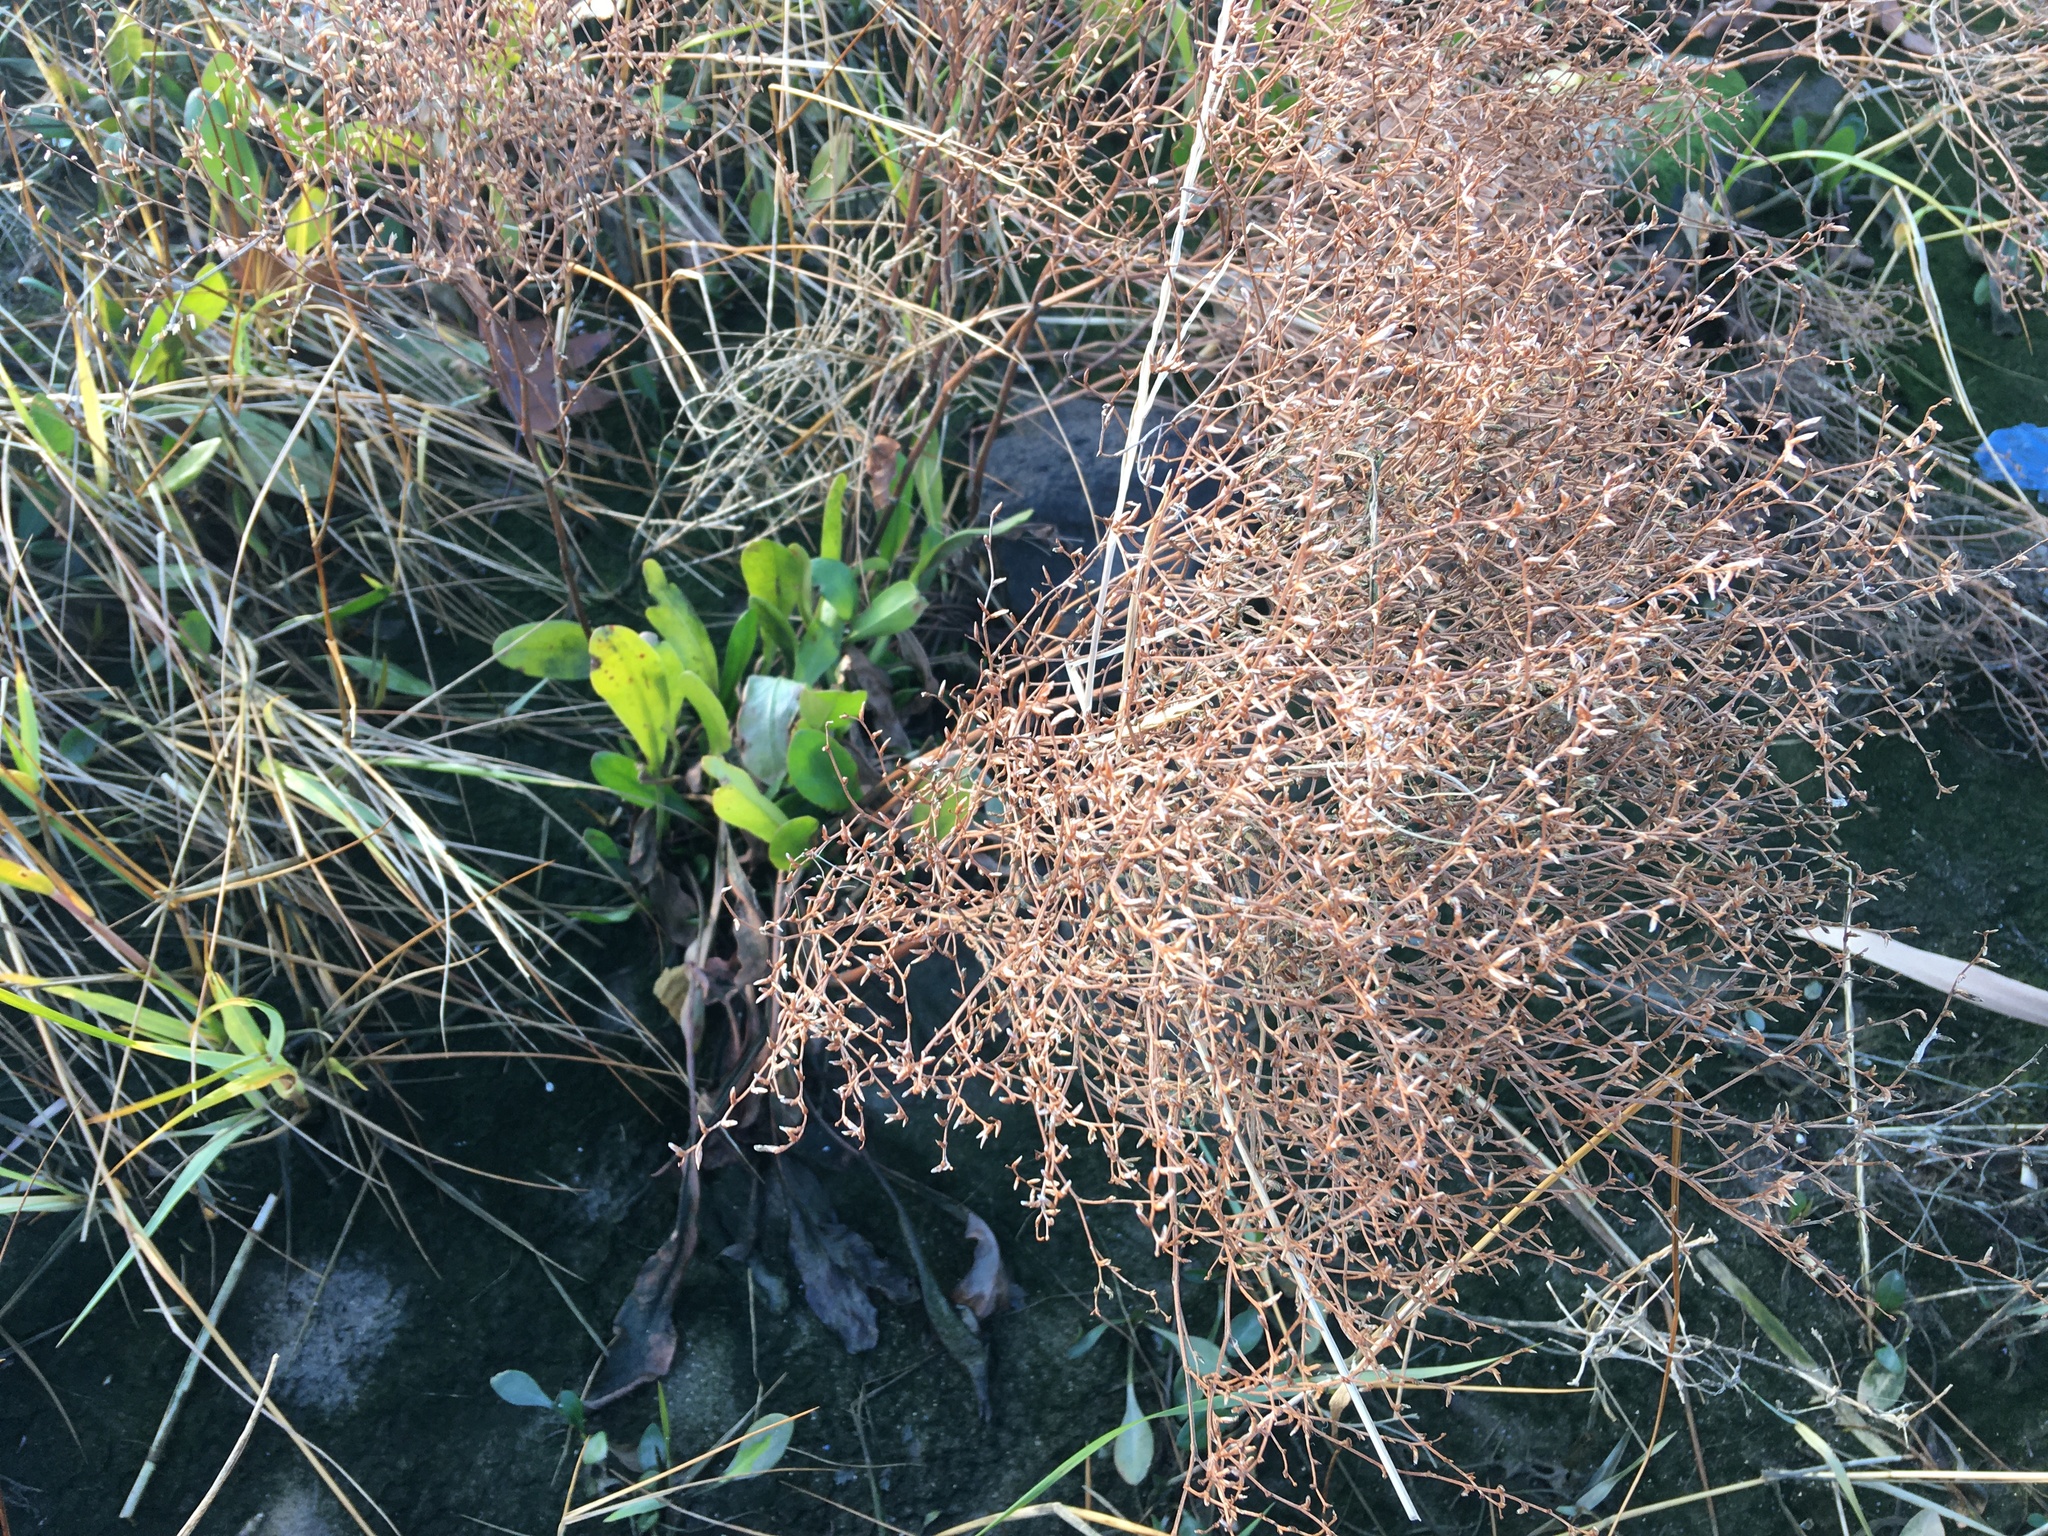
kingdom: Plantae
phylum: Tracheophyta
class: Magnoliopsida
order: Caryophyllales
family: Plumbaginaceae
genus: Limonium
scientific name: Limonium carolinianum
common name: Carolina sea lavender
